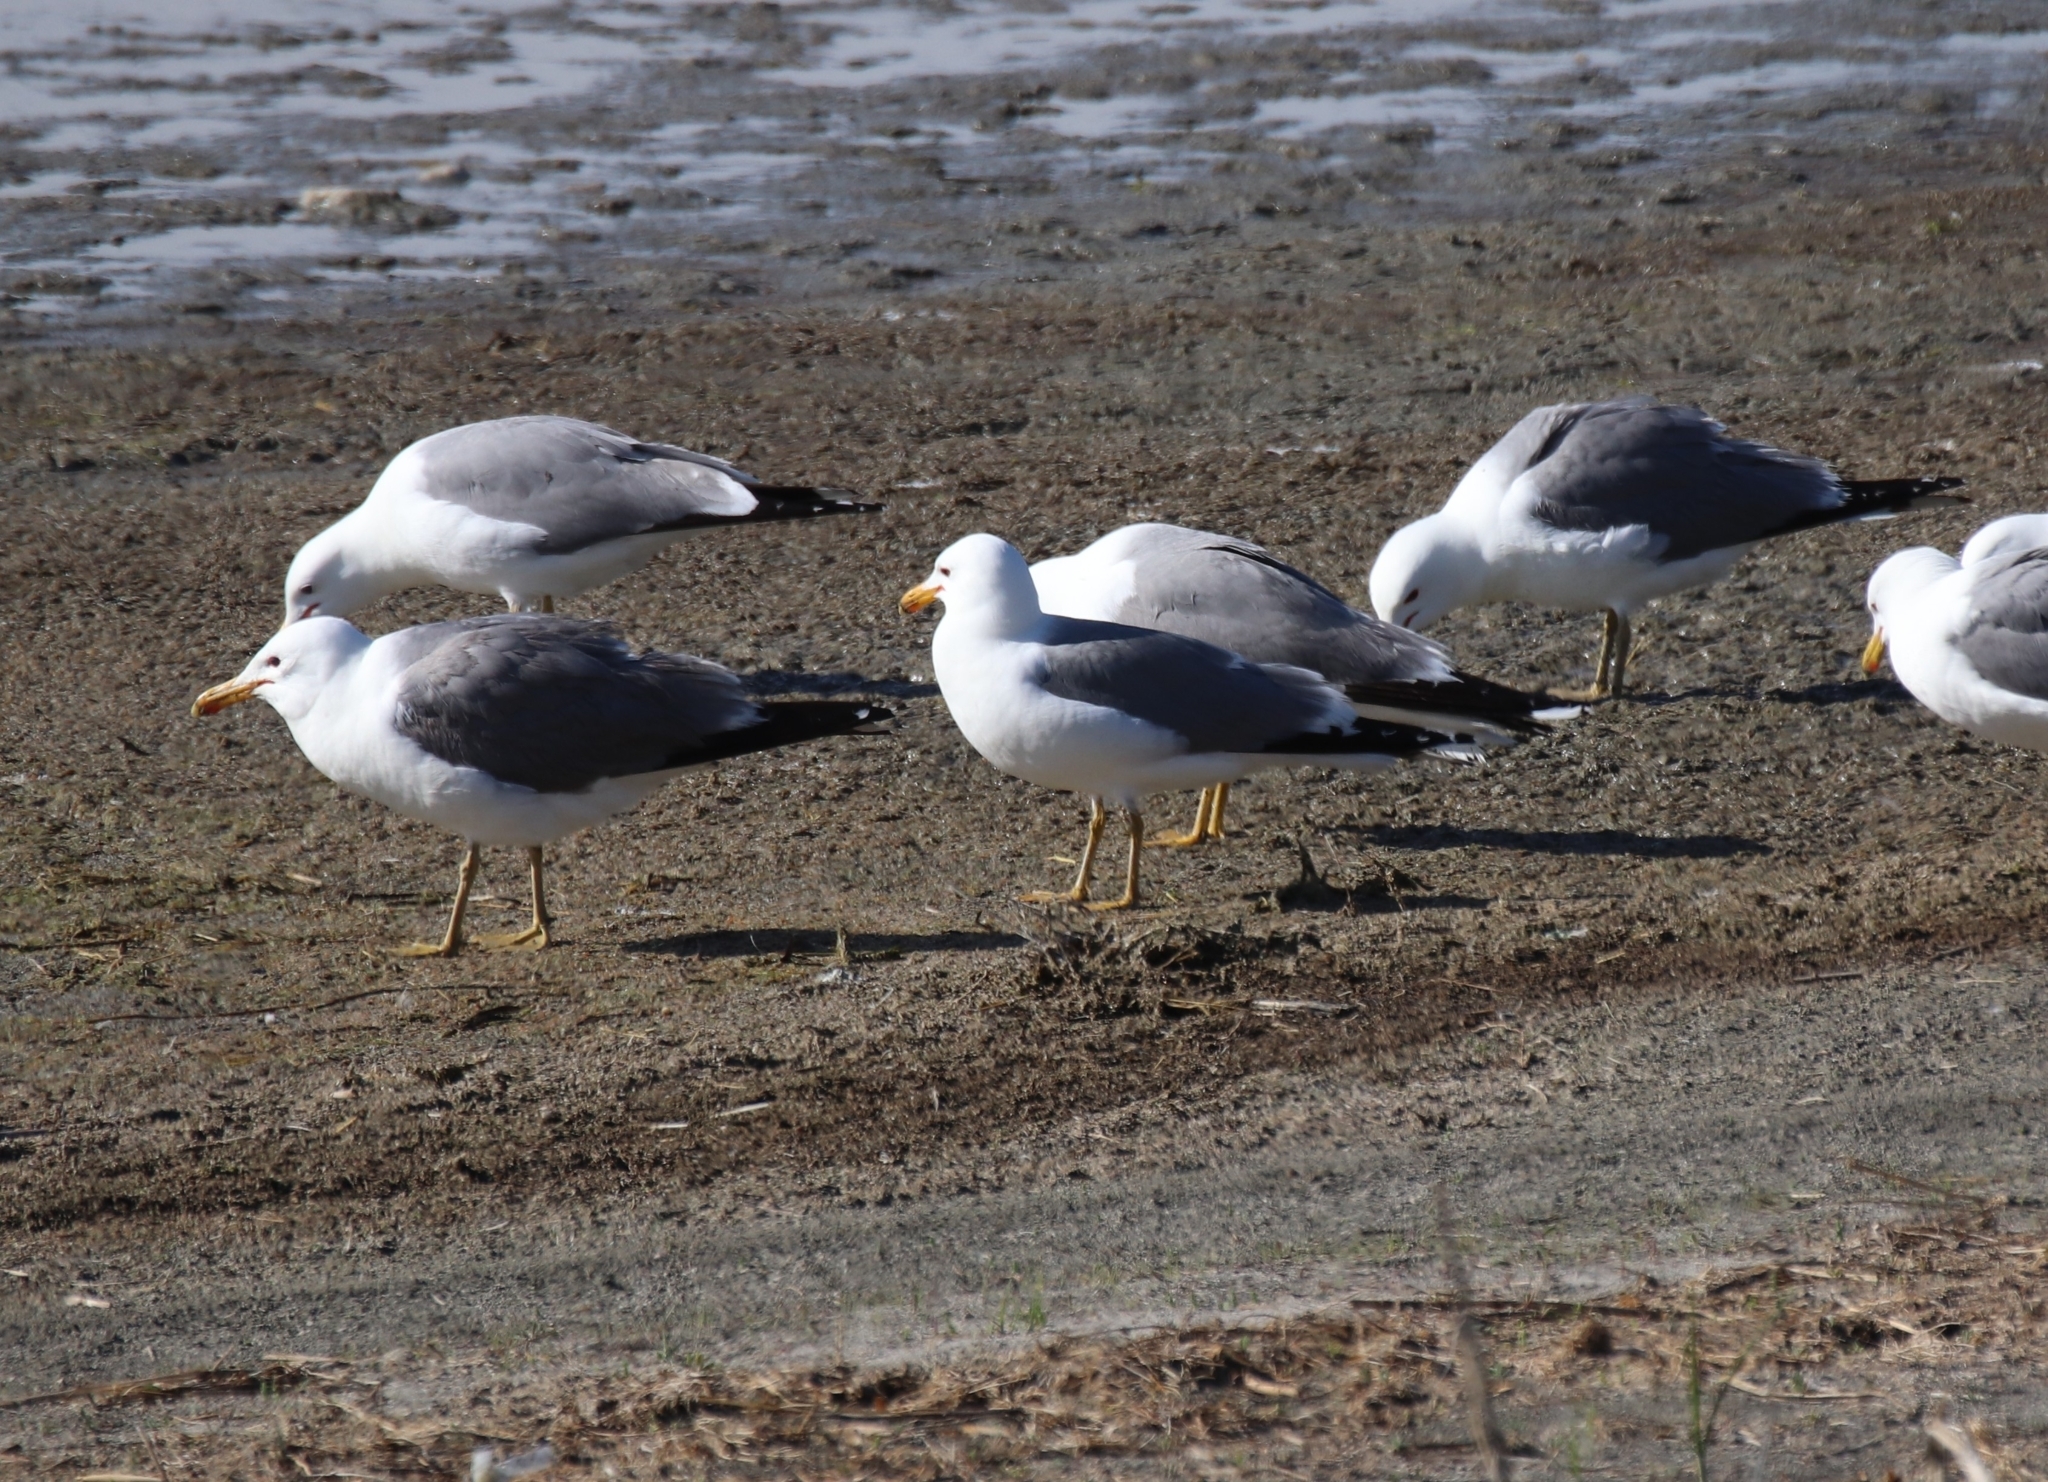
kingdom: Animalia
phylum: Chordata
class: Aves
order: Charadriiformes
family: Laridae
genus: Larus
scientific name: Larus californicus
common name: California gull
